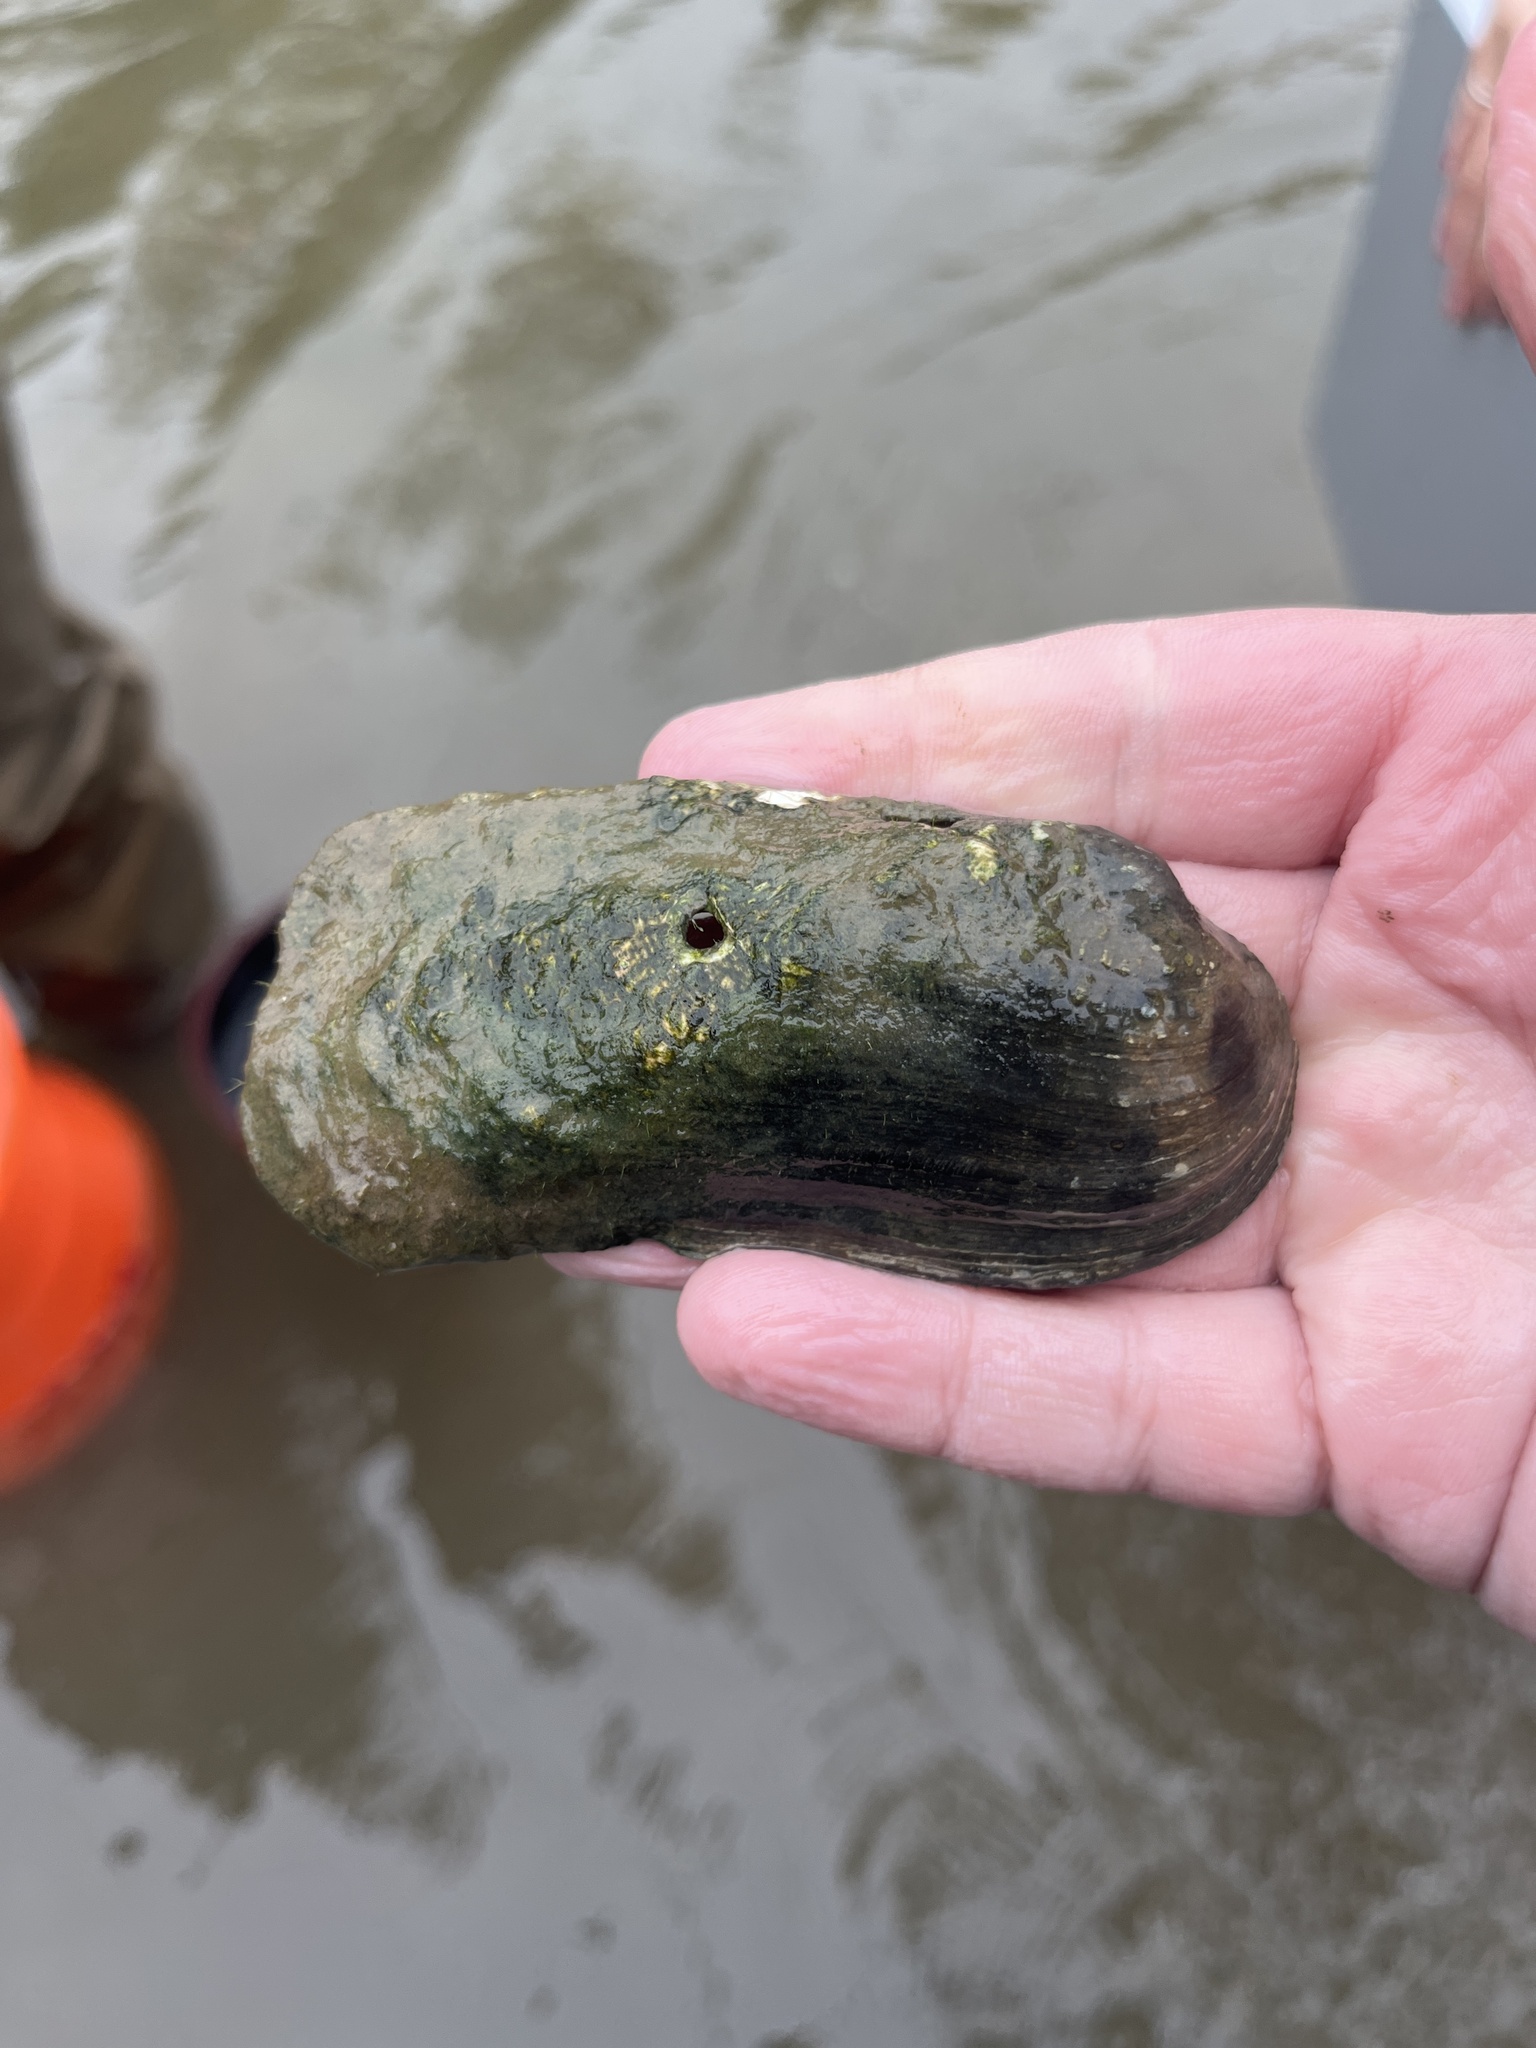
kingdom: Animalia
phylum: Mollusca
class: Bivalvia
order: Unionida
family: Unionidae
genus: Theliderma
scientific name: Theliderma cylindrica
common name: Rabbitsfoot
